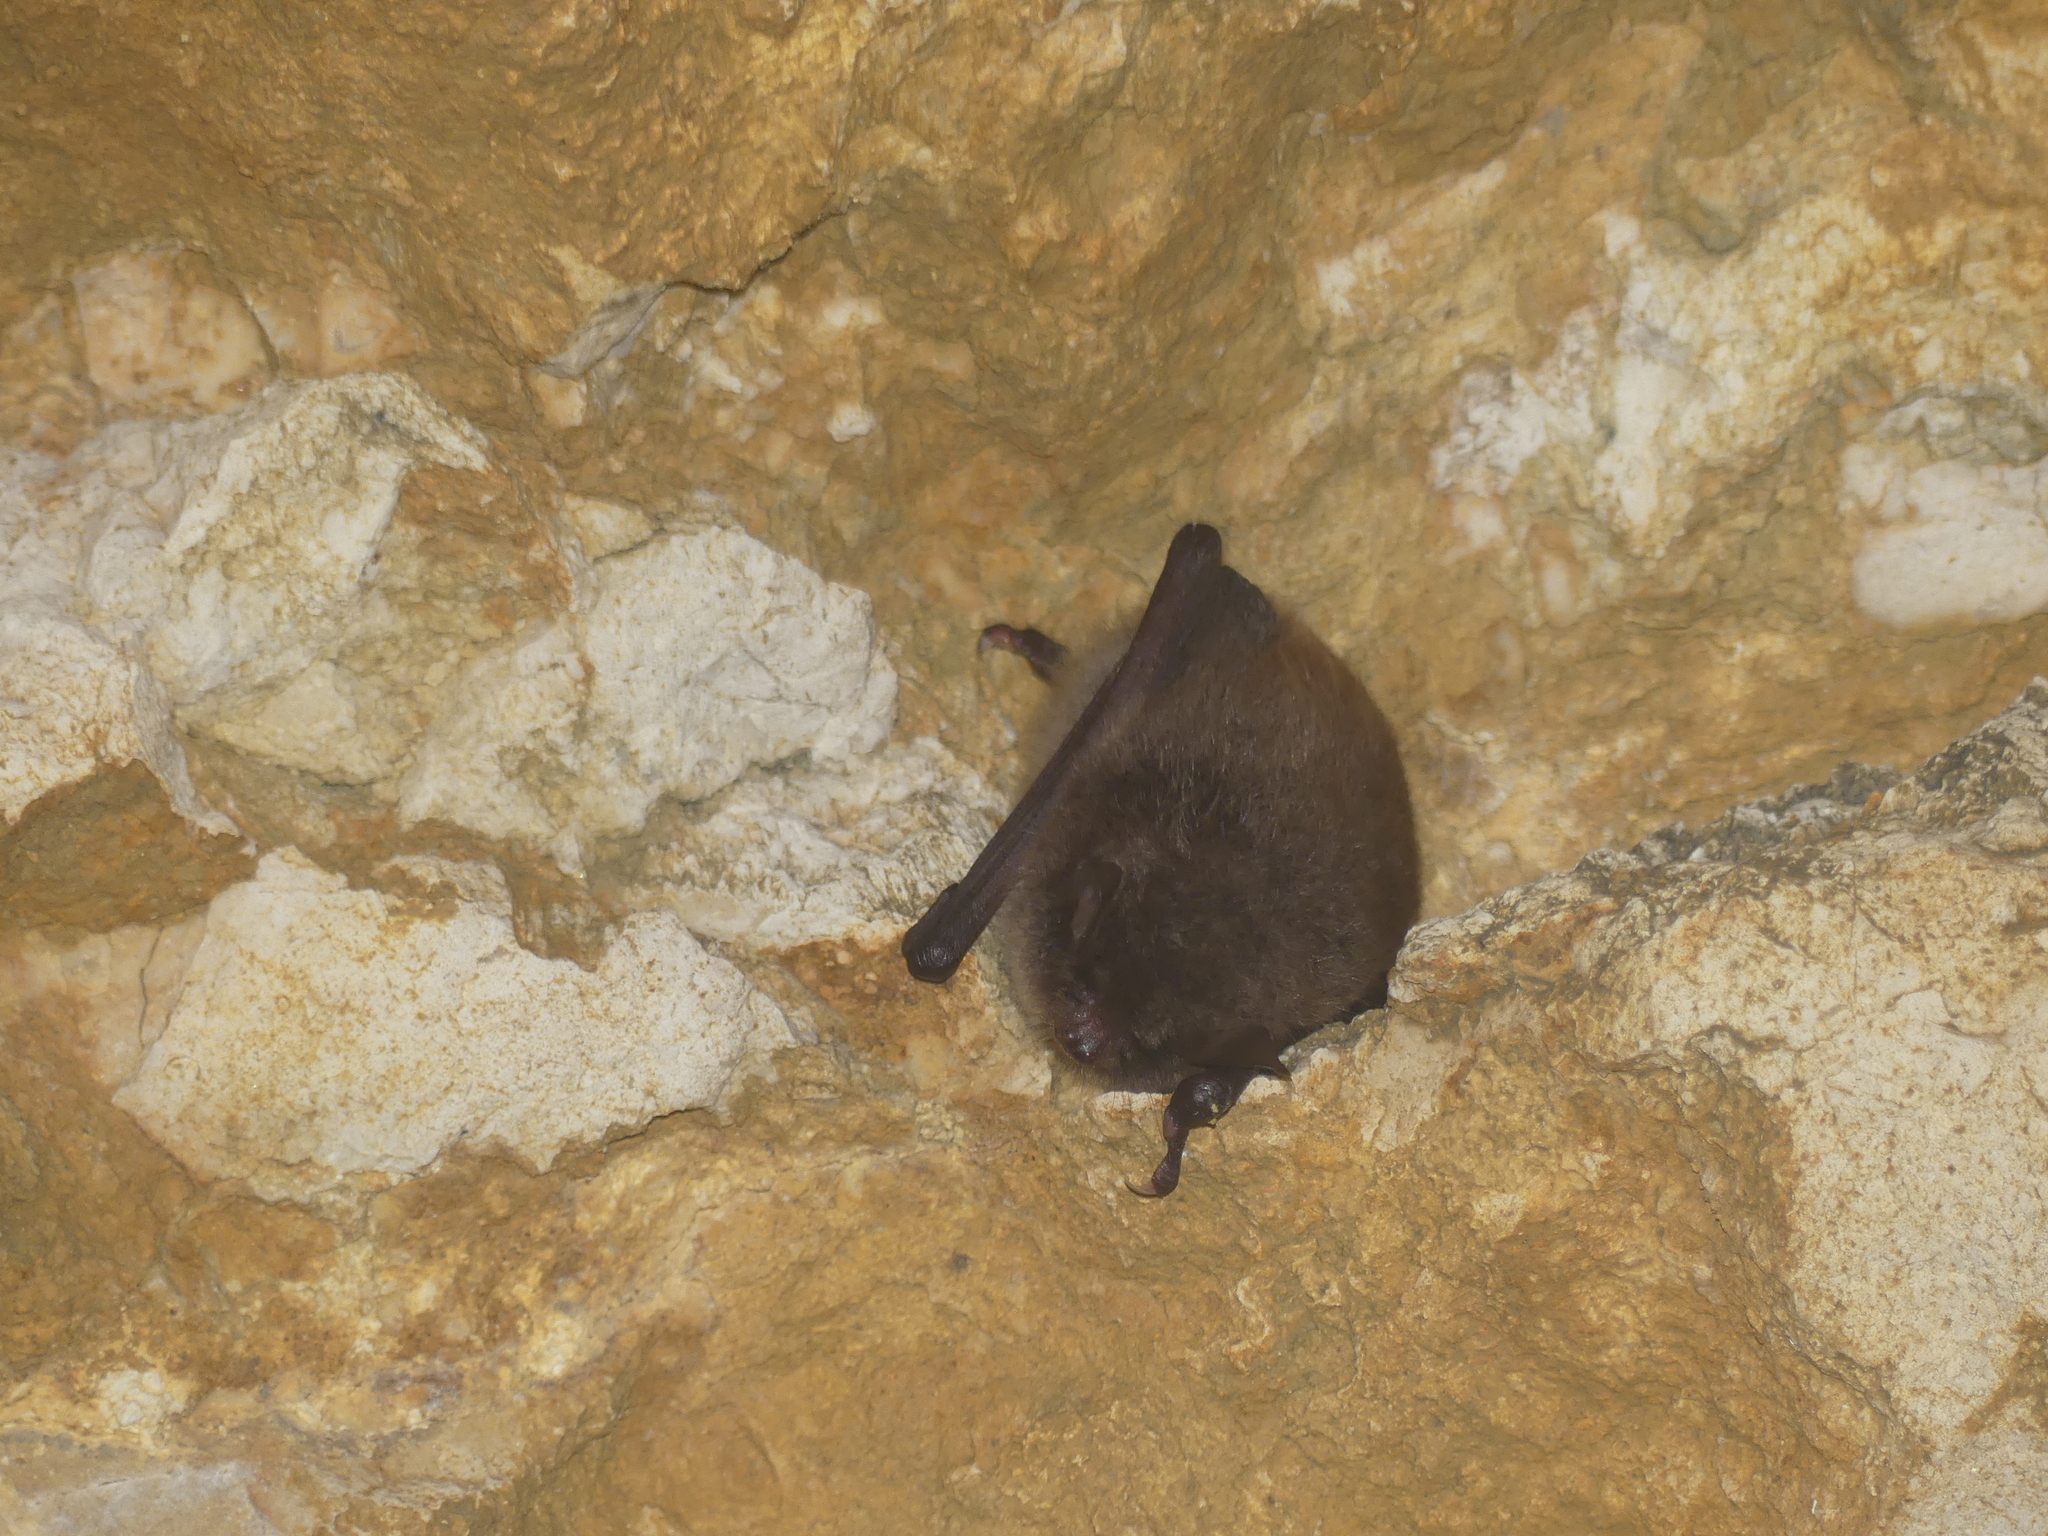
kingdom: Animalia
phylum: Chordata
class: Mammalia
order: Chiroptera
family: Vespertilionidae
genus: Myotis
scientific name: Myotis daubentonii
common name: Daubenton's myotis
